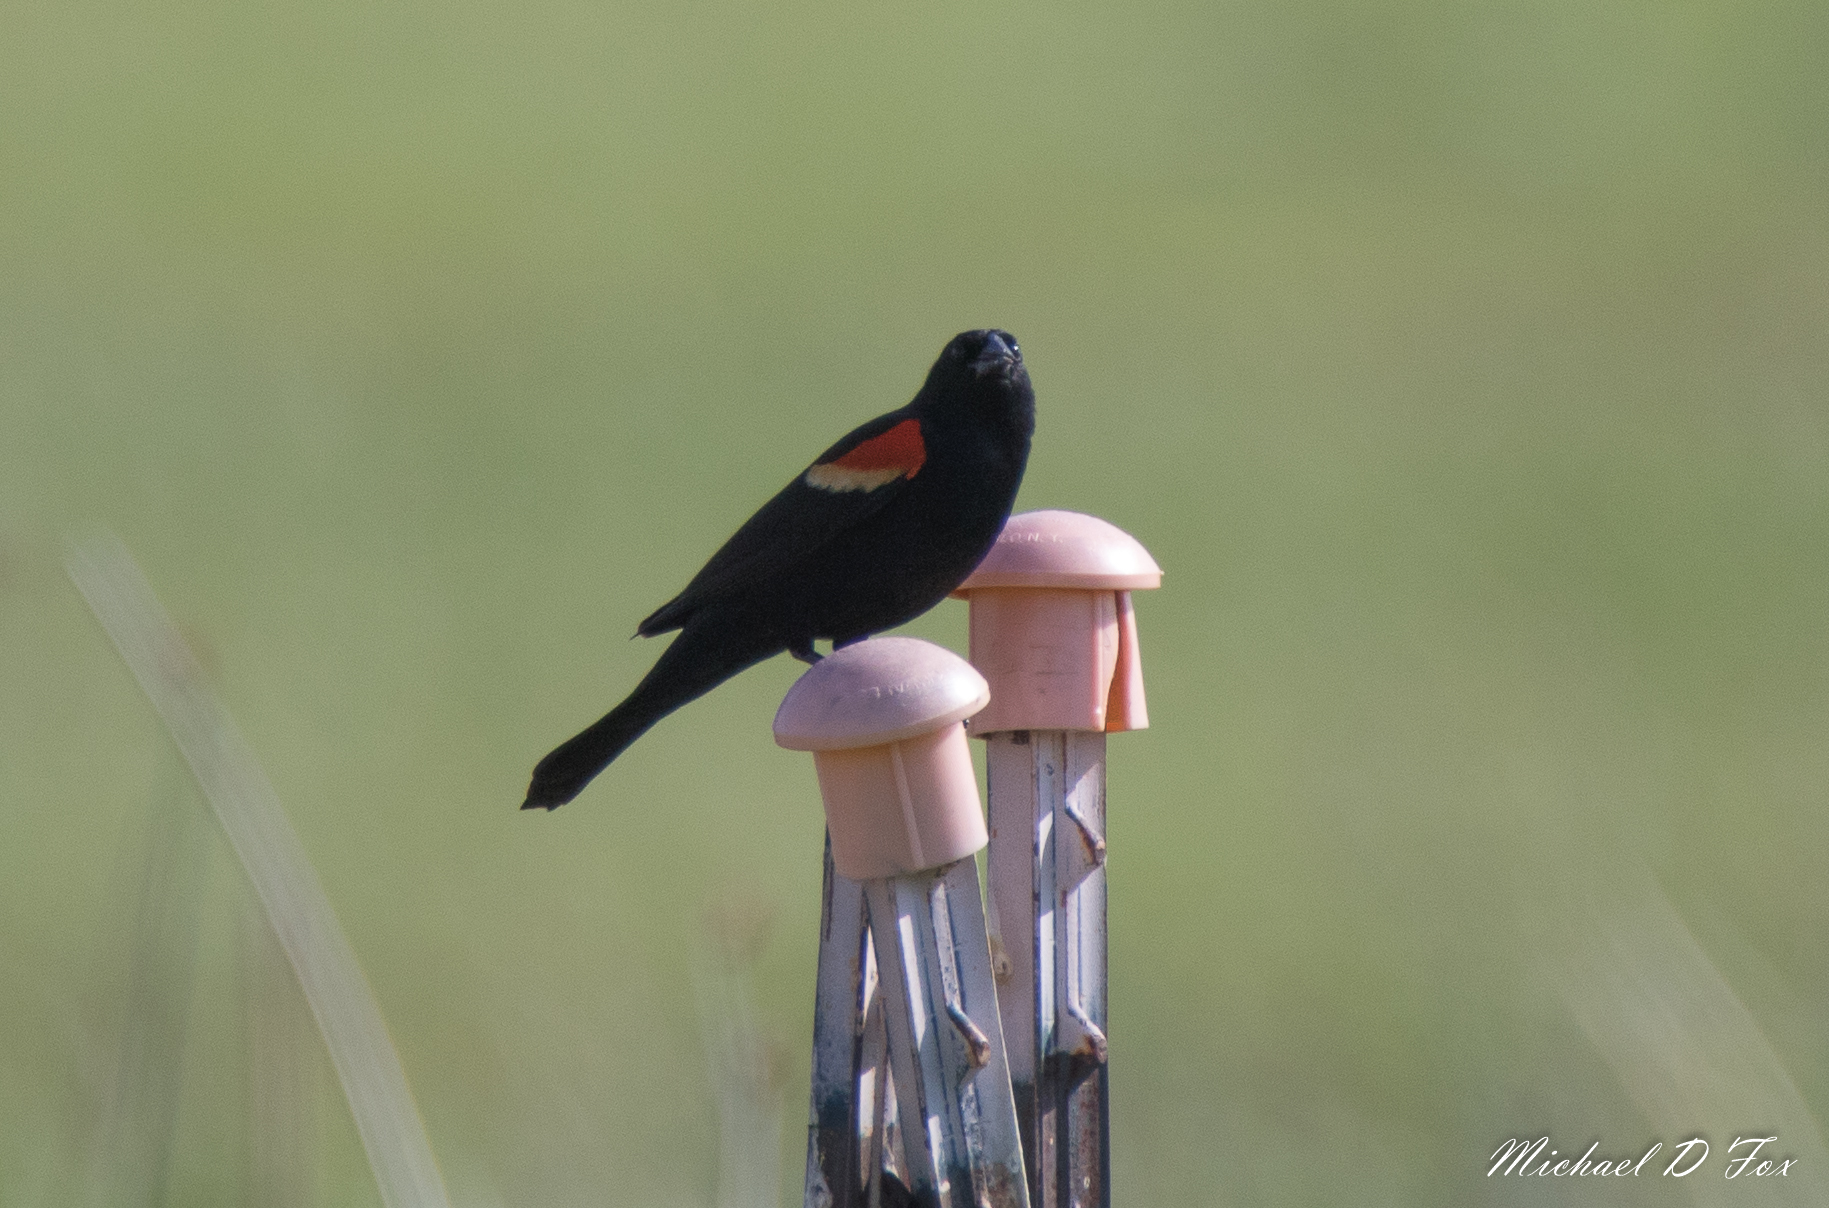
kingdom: Animalia
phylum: Chordata
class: Aves
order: Passeriformes
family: Icteridae
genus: Agelaius
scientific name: Agelaius phoeniceus
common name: Red-winged blackbird
